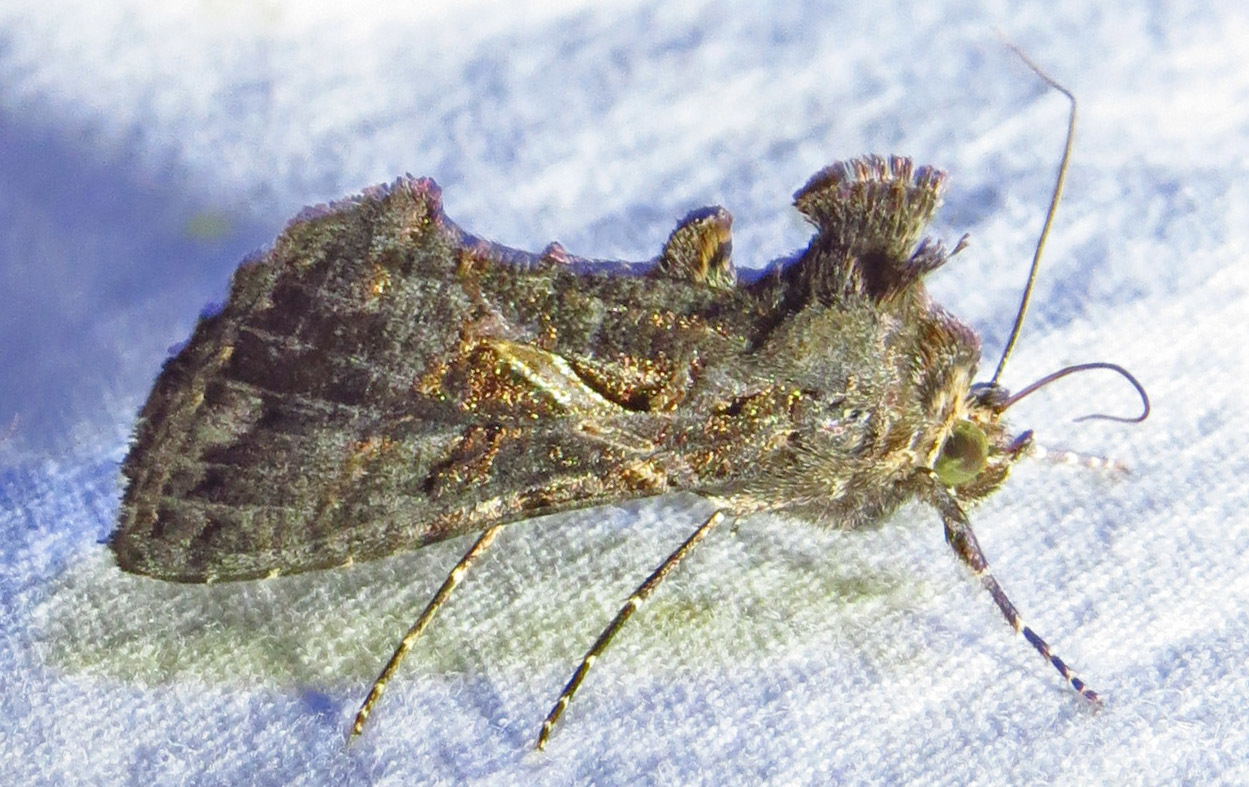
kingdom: Animalia
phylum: Arthropoda
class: Insecta
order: Lepidoptera
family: Noctuidae
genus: Ctenoplusia
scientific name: Ctenoplusia oxygramma
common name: Sharp-stigma looper moth
